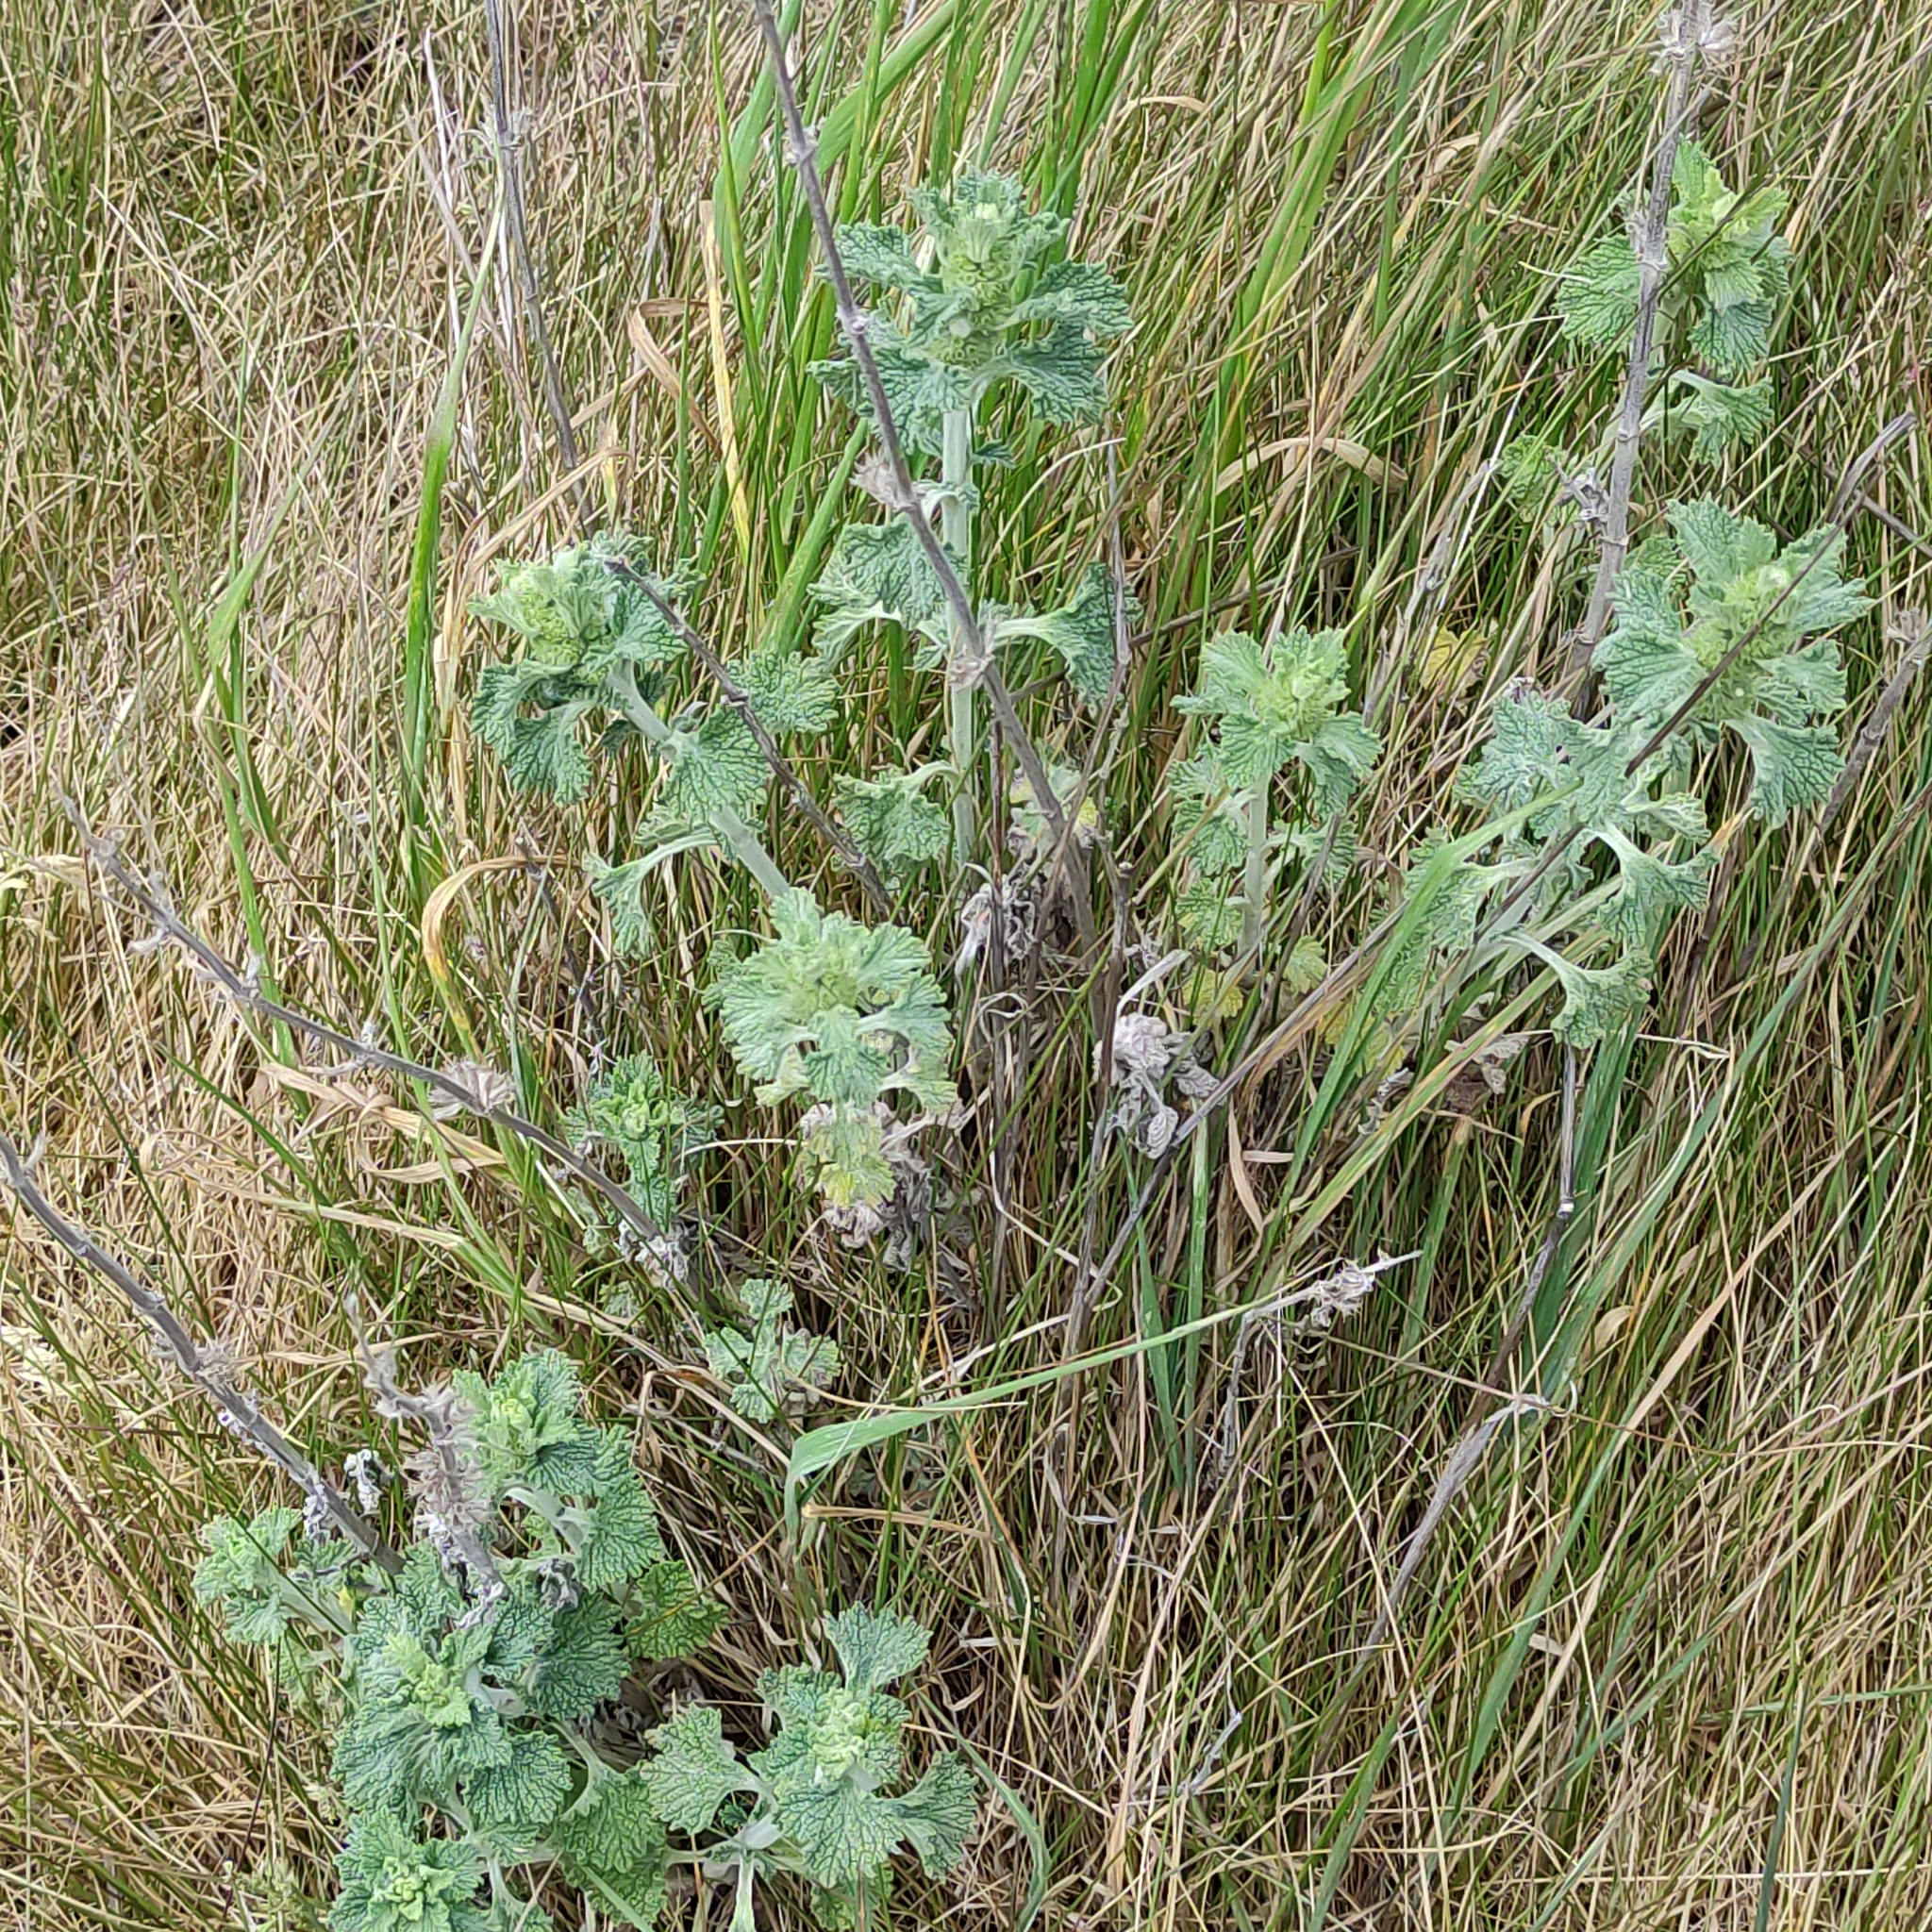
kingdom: Plantae
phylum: Tracheophyta
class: Magnoliopsida
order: Lamiales
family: Lamiaceae
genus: Marrubium
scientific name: Marrubium vulgare
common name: Horehound
